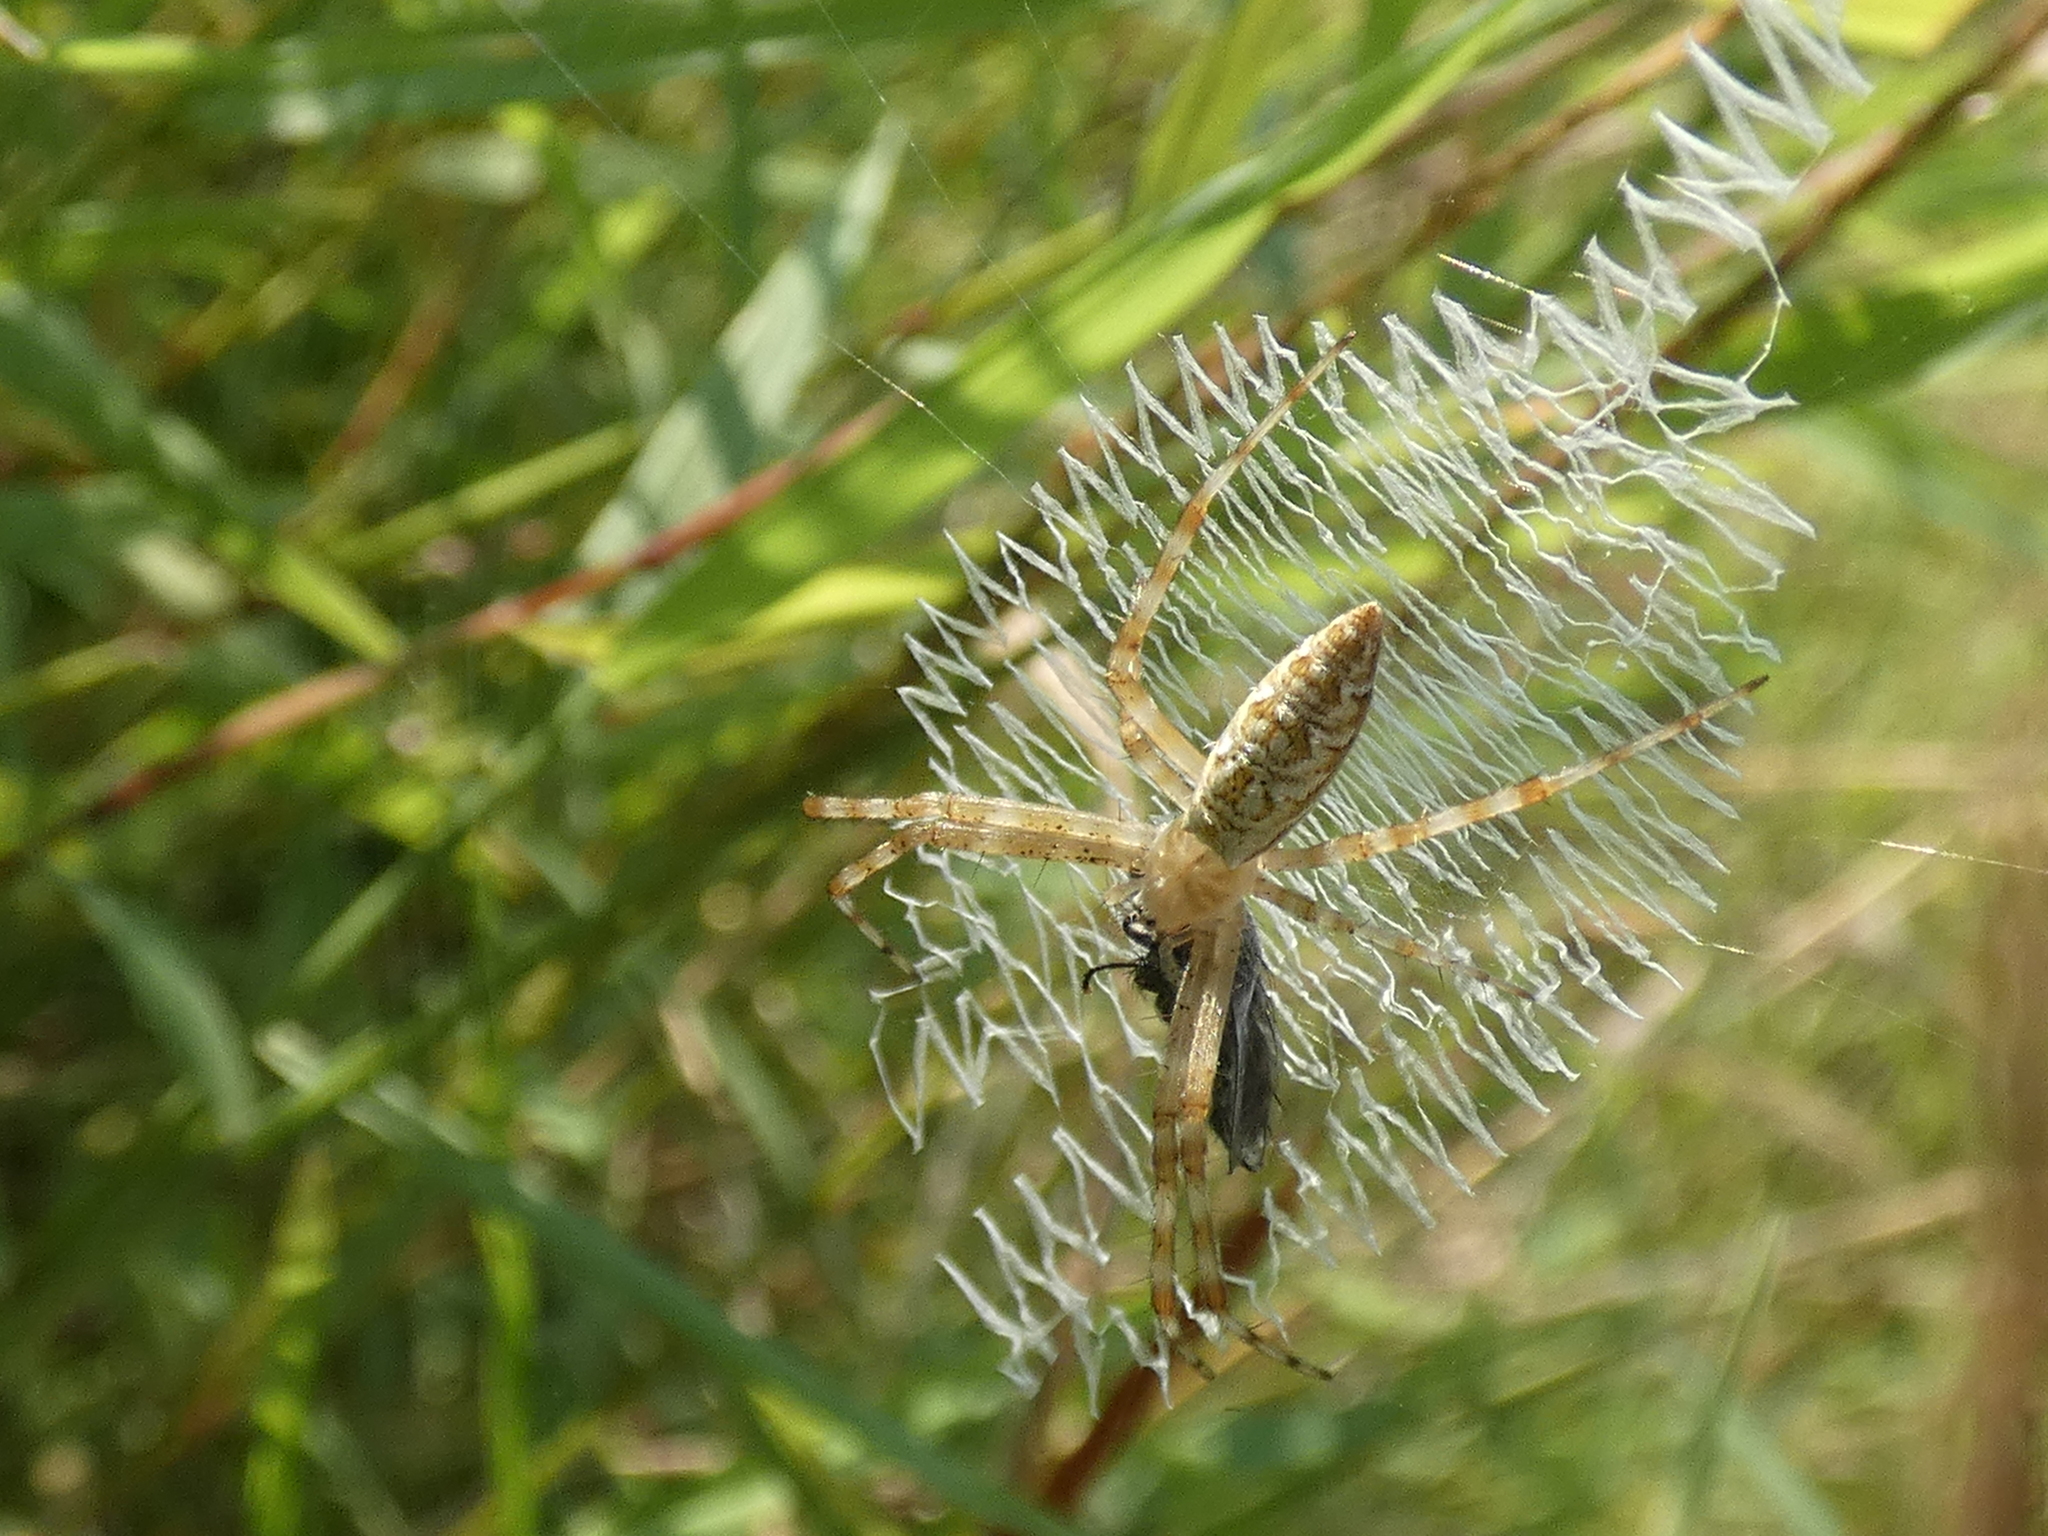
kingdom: Animalia
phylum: Arthropoda
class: Arachnida
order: Araneae
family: Araneidae
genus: Argiope
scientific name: Argiope aurantia
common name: Orb weavers
